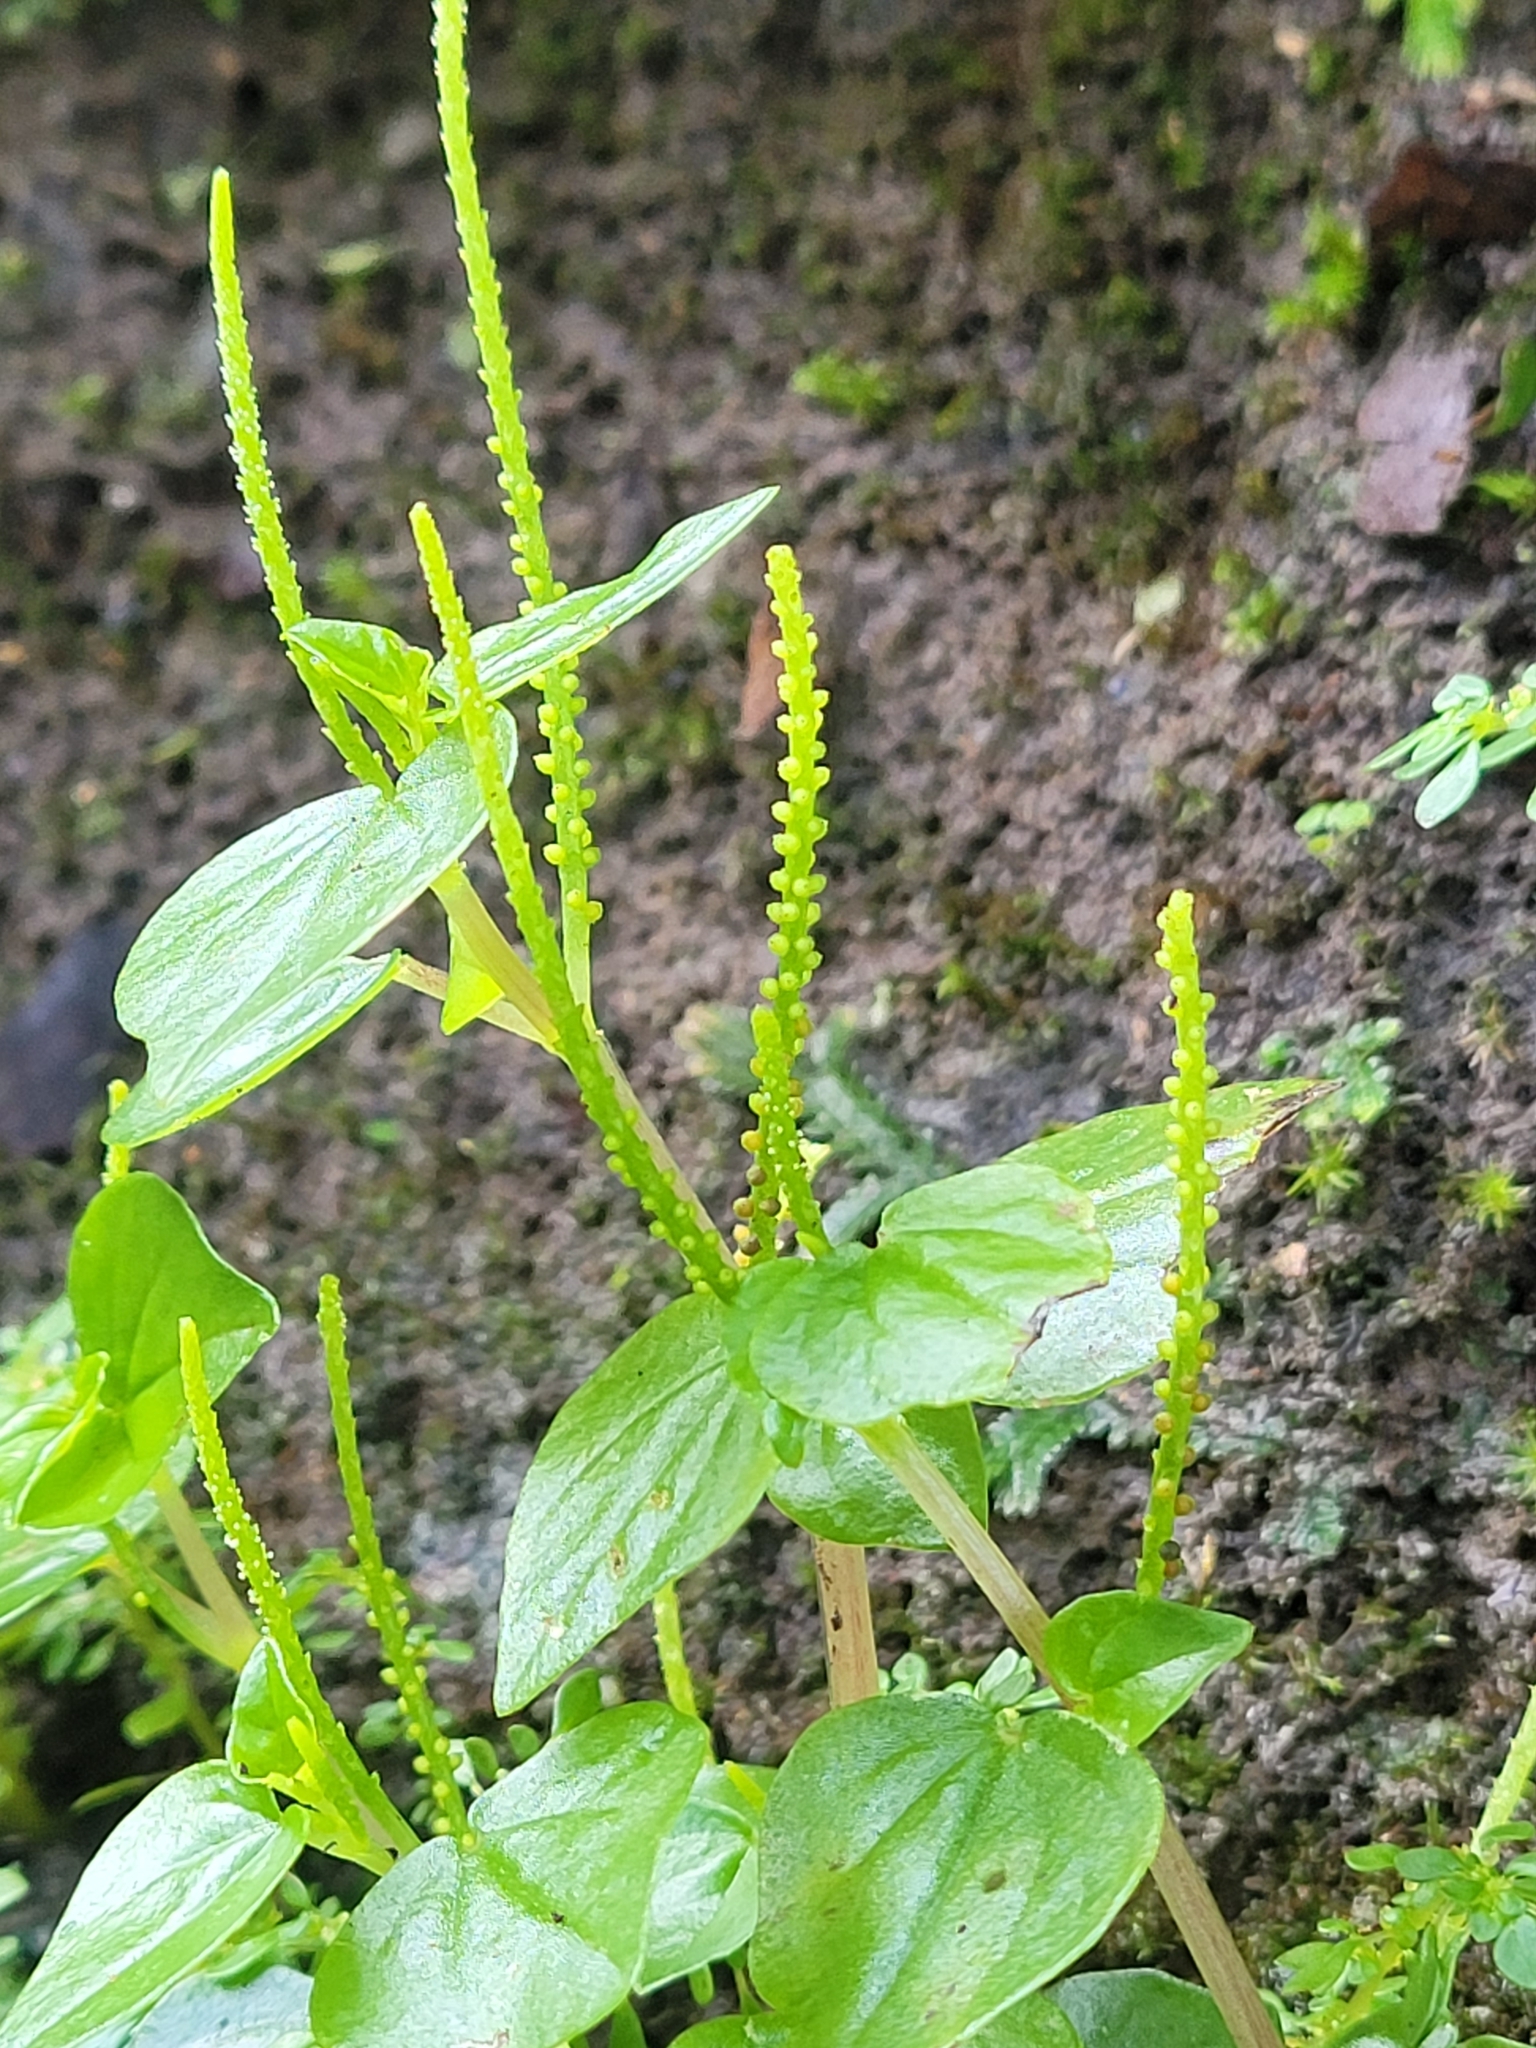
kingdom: Plantae
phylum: Tracheophyta
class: Magnoliopsida
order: Piperales
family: Piperaceae
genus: Peperomia
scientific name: Peperomia pellucida
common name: Man to man
